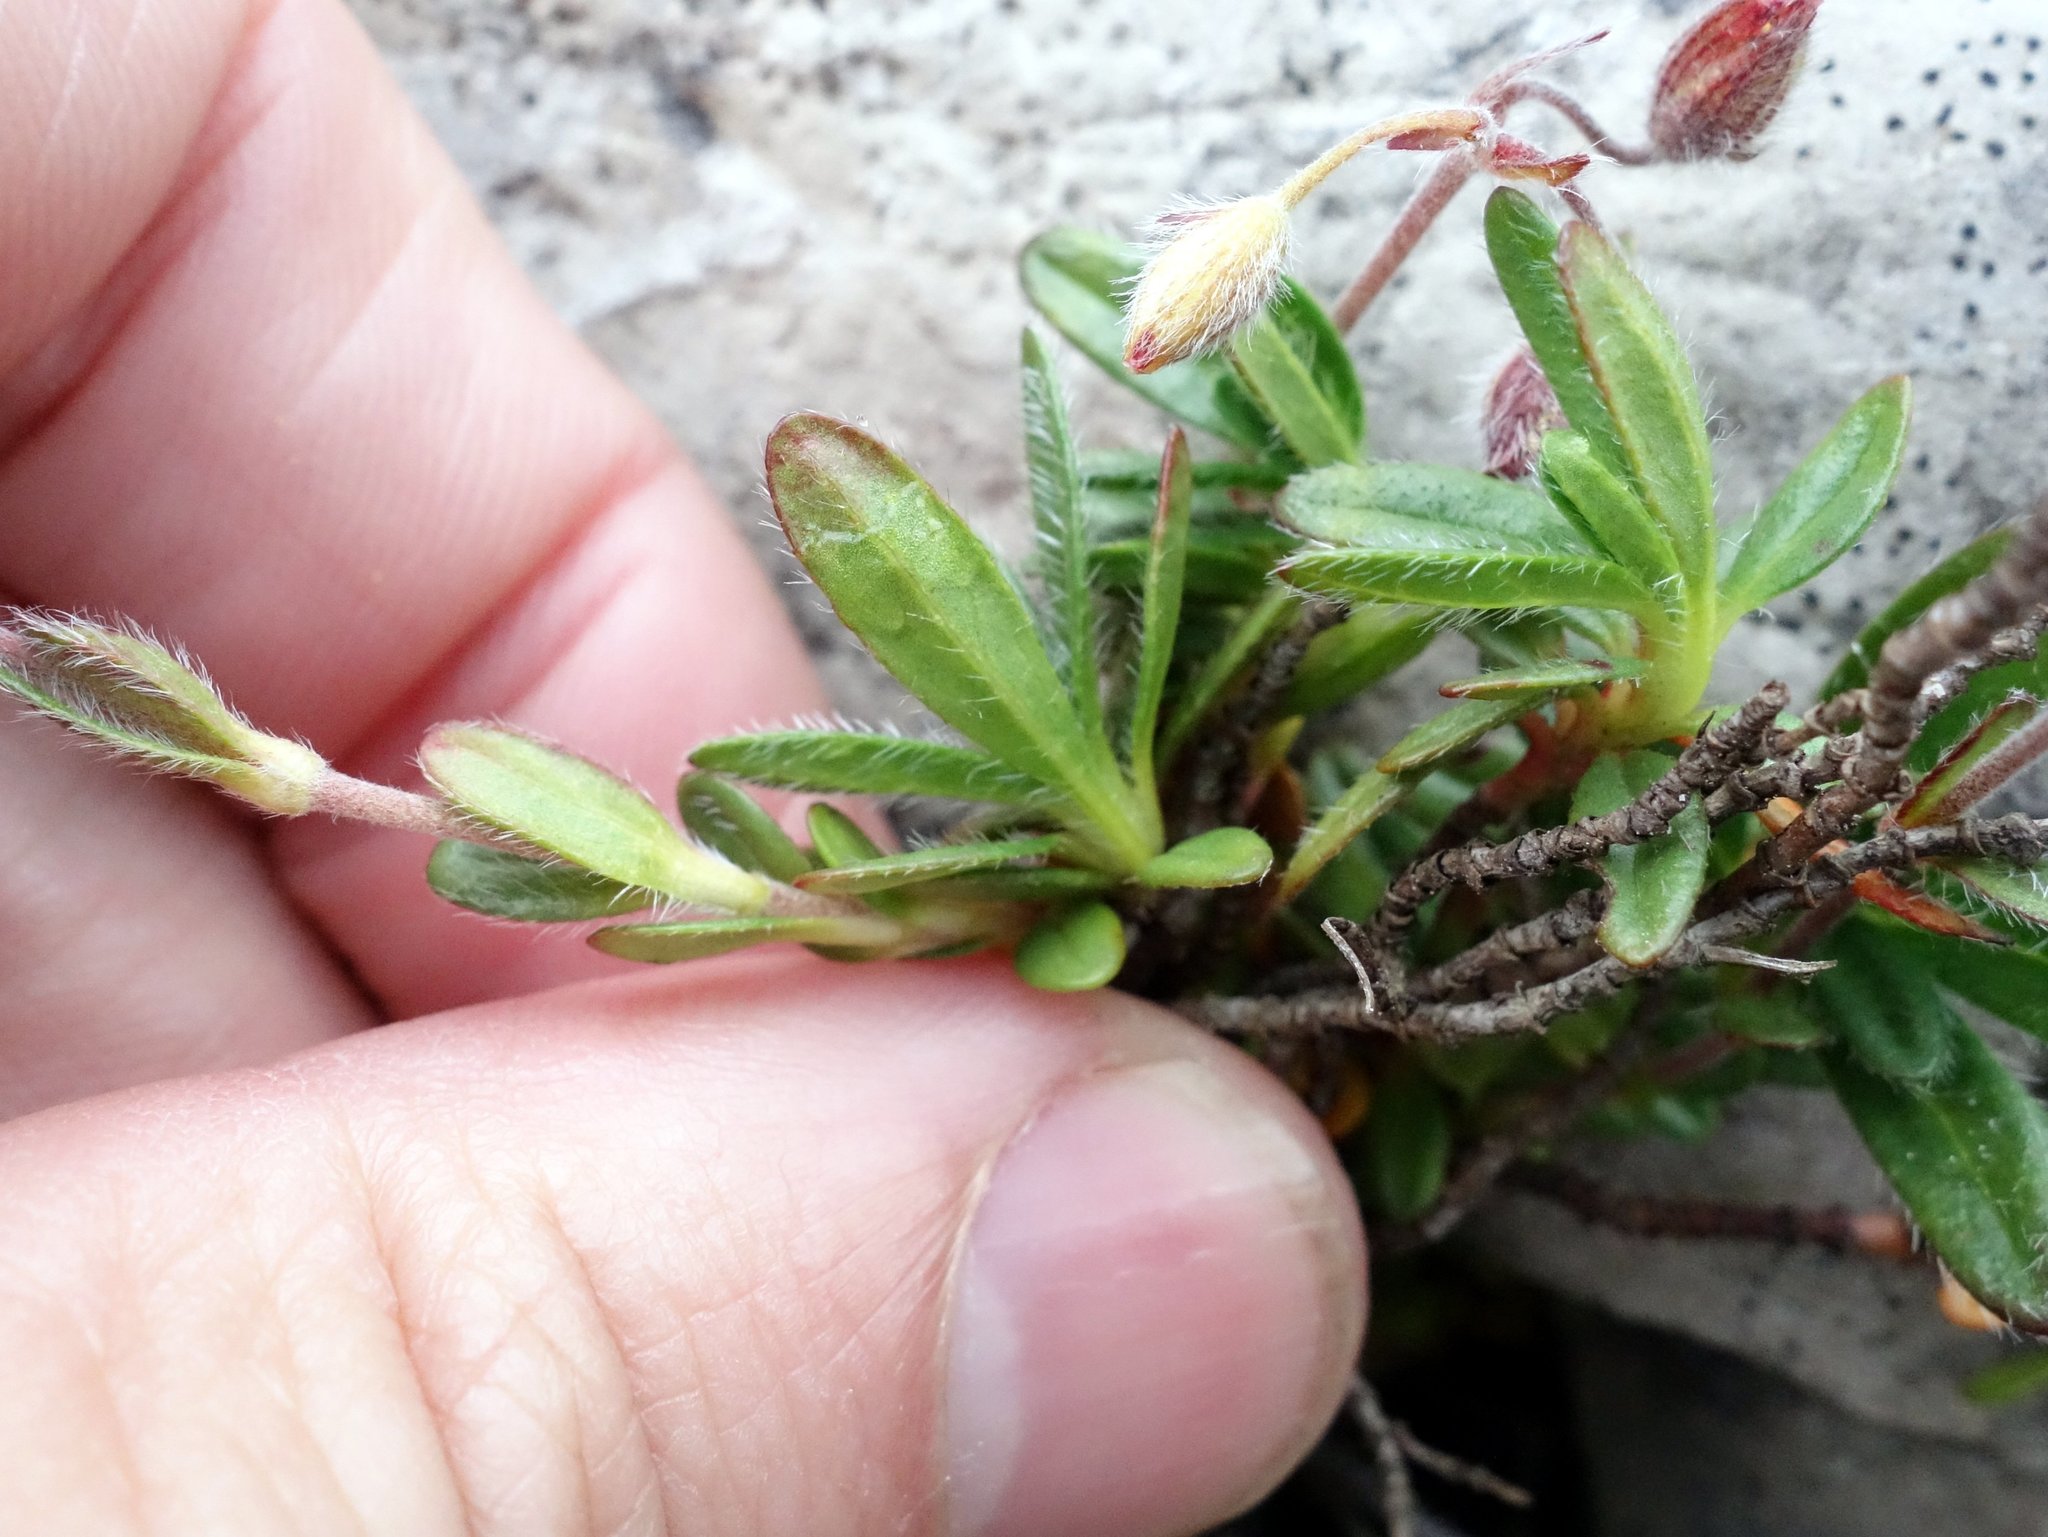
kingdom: Plantae
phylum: Tracheophyta
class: Magnoliopsida
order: Malvales
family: Cistaceae
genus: Helianthemum
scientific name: Helianthemum alpestre
